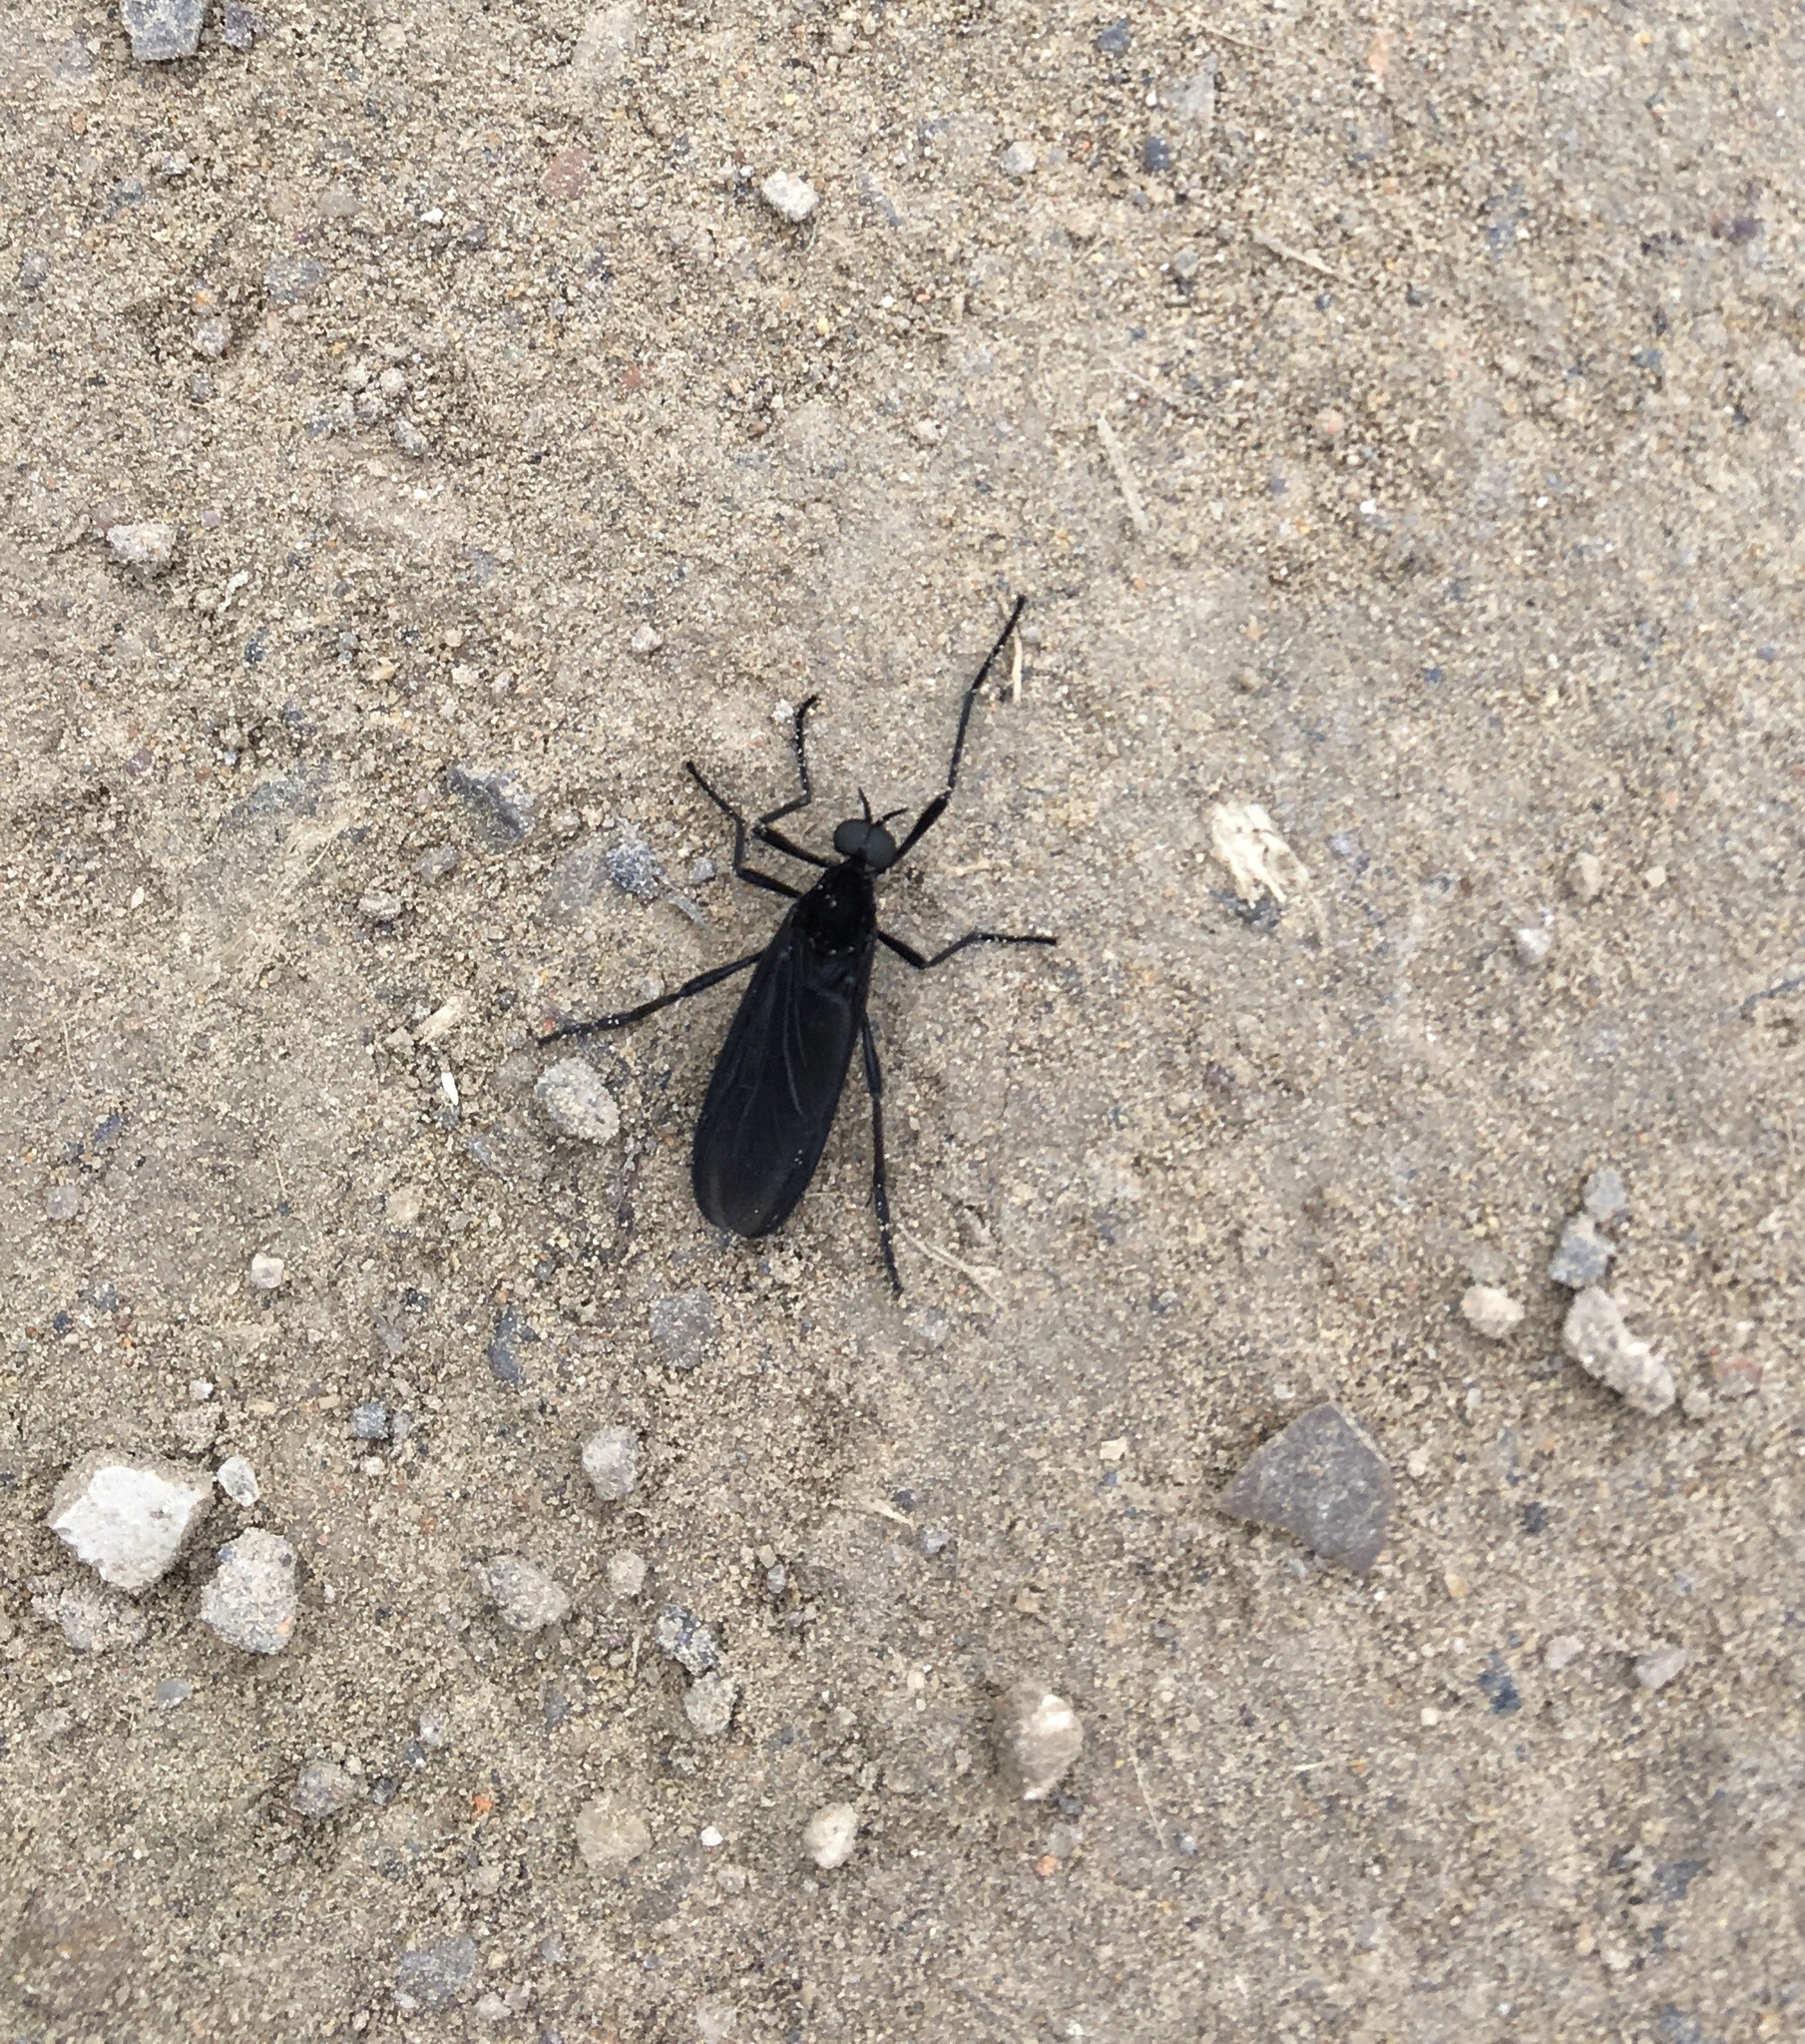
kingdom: Animalia
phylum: Arthropoda
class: Insecta
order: Diptera
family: Bibionidae
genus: Penthetria
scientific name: Penthetria neonigrita
